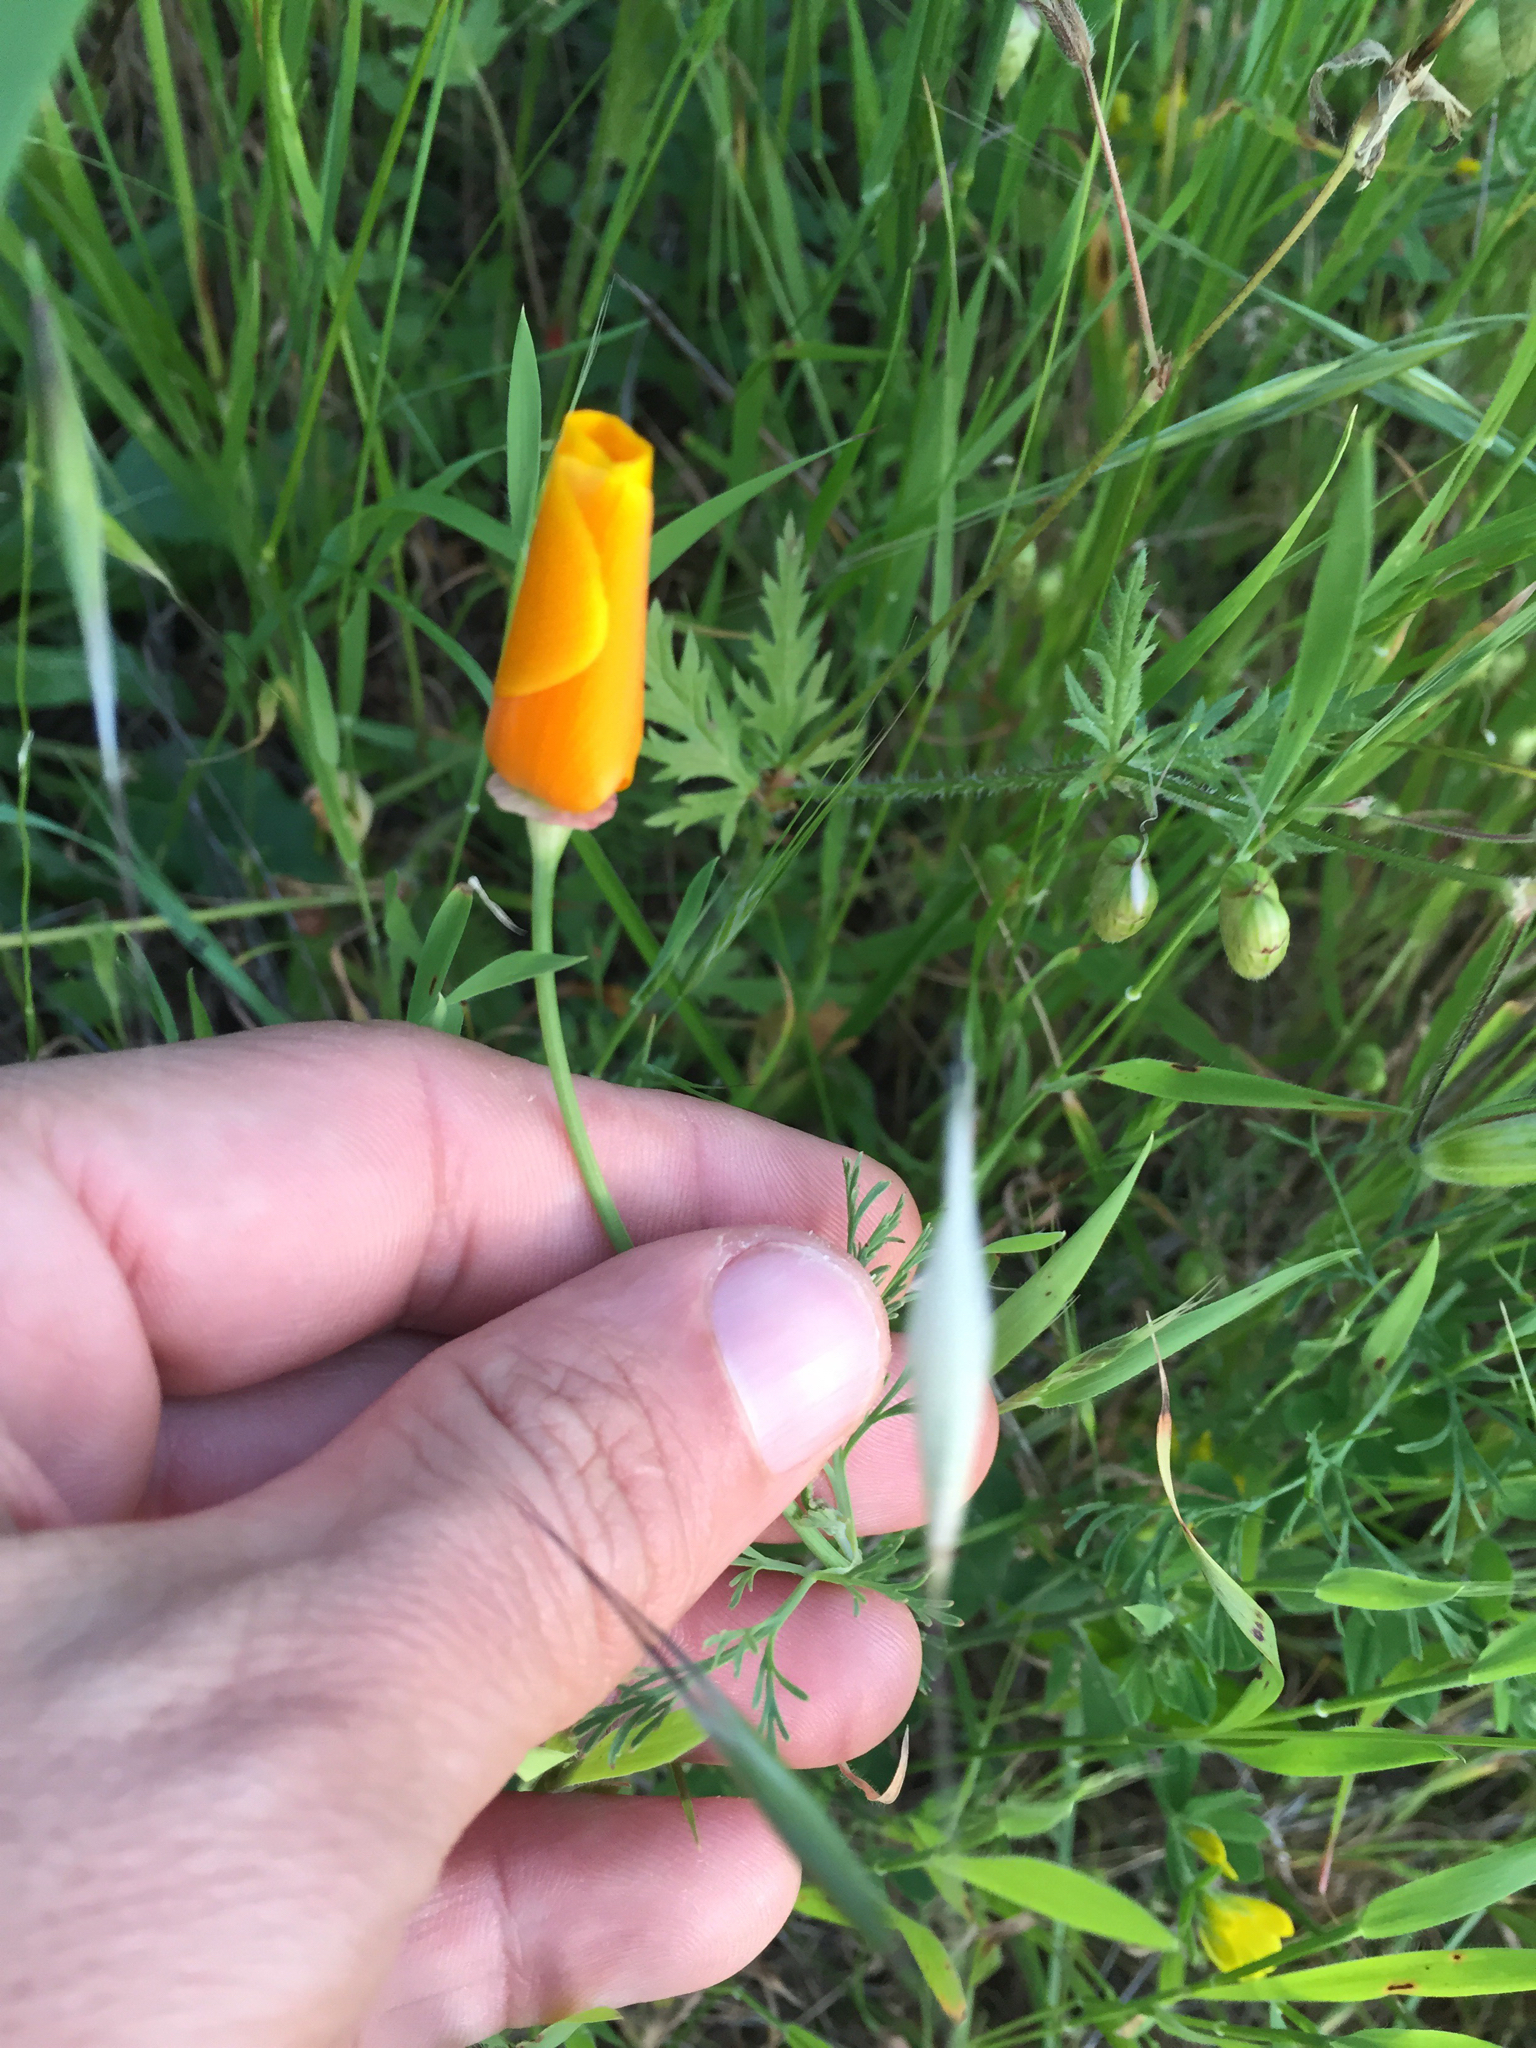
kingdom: Plantae
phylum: Tracheophyta
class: Magnoliopsida
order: Ranunculales
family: Papaveraceae
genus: Eschscholzia
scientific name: Eschscholzia californica
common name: California poppy
